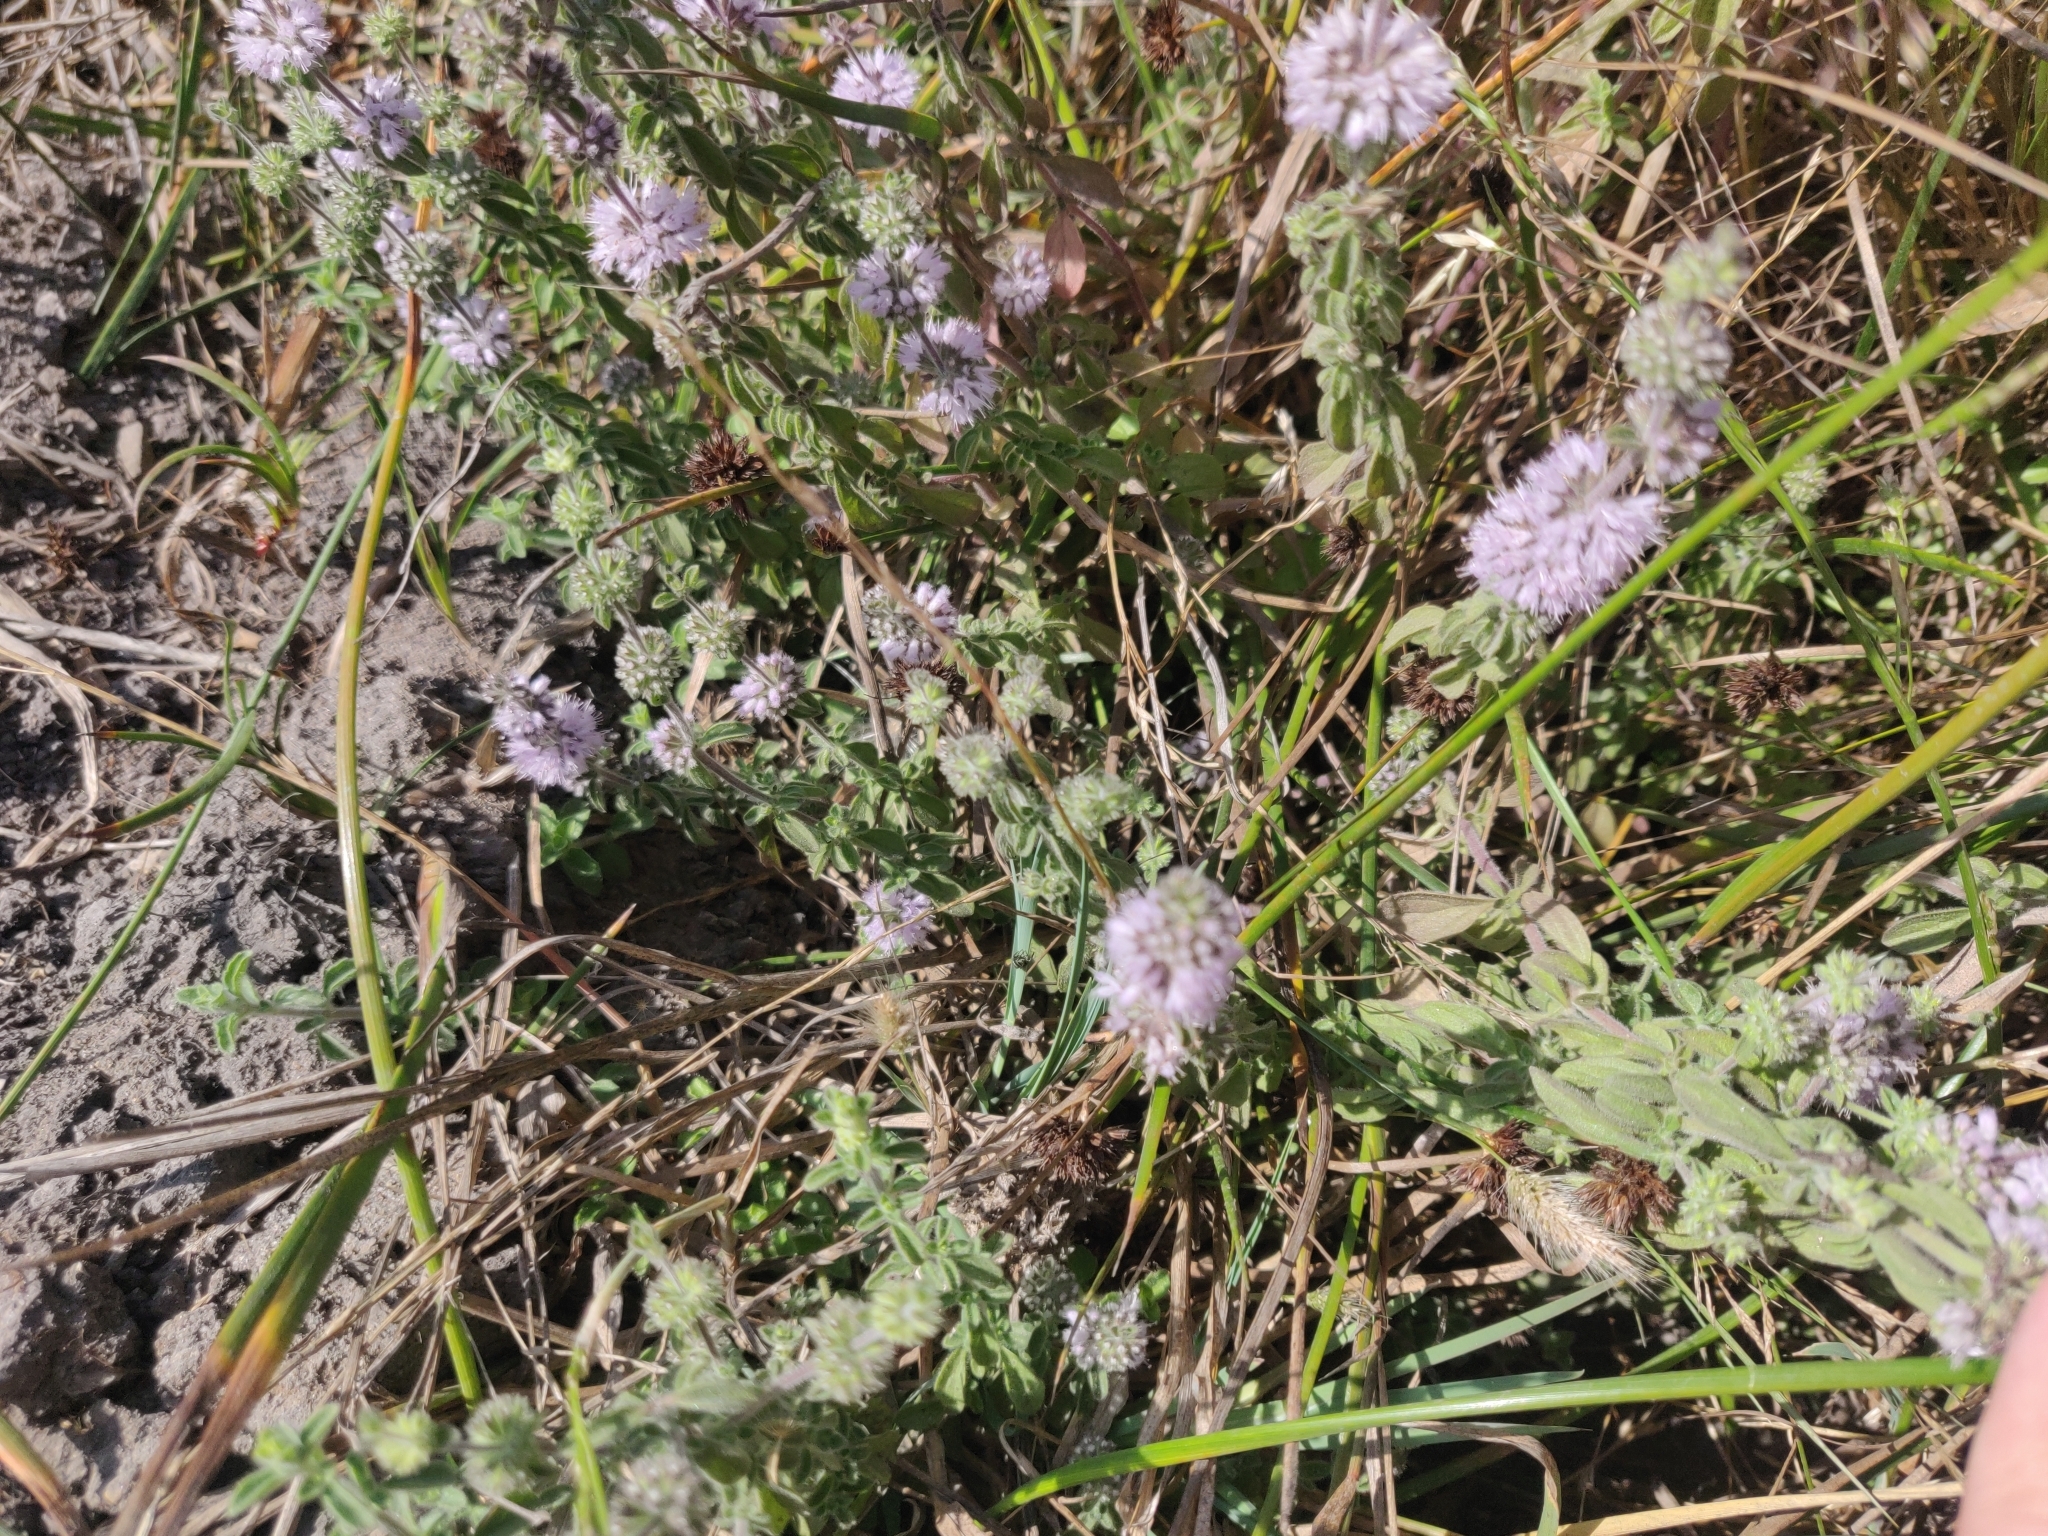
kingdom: Plantae
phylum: Tracheophyta
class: Magnoliopsida
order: Lamiales
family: Lamiaceae
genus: Mentha
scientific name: Mentha pulegium
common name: Pennyroyal
